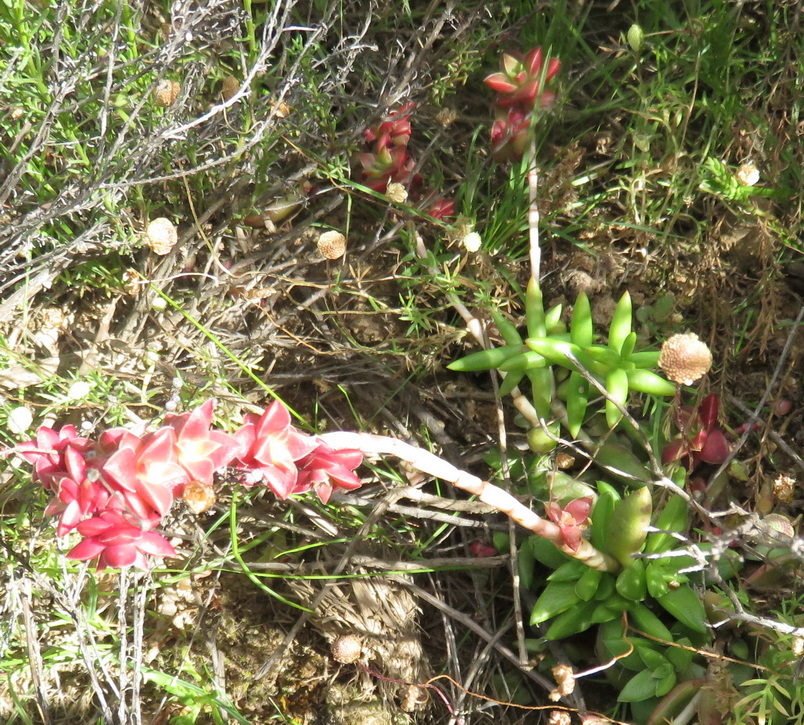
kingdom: Plantae
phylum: Tracheophyta
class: Magnoliopsida
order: Saxifragales
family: Crassulaceae
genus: Crassula
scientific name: Crassula capitella
